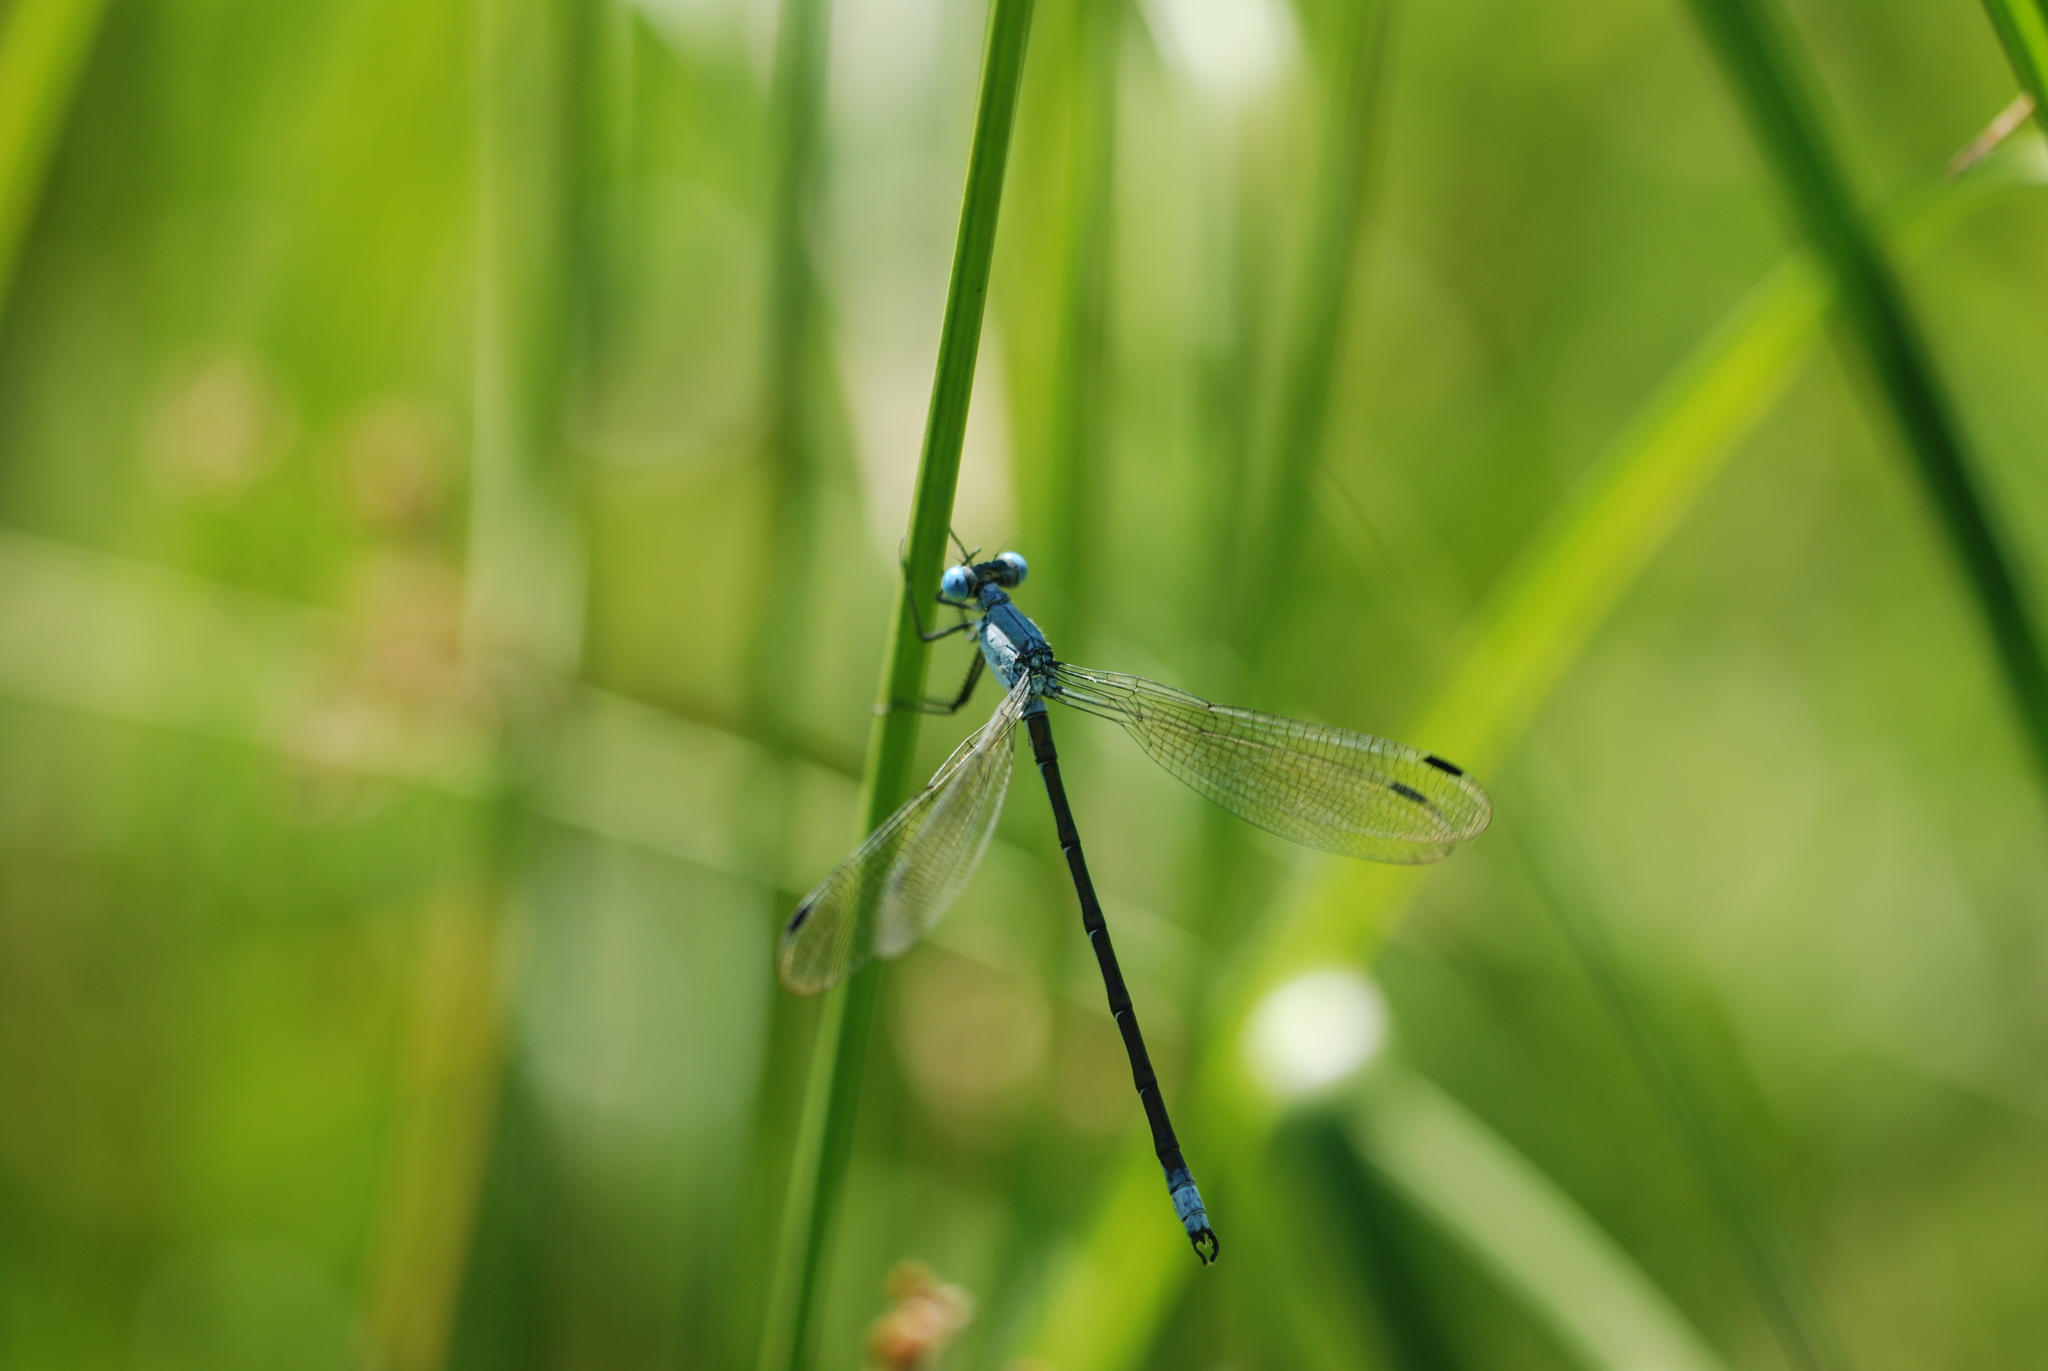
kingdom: Animalia
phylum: Arthropoda
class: Insecta
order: Odonata
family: Lestidae
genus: Lestes
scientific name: Lestes eurinus
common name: Amber-winged spreadwing
